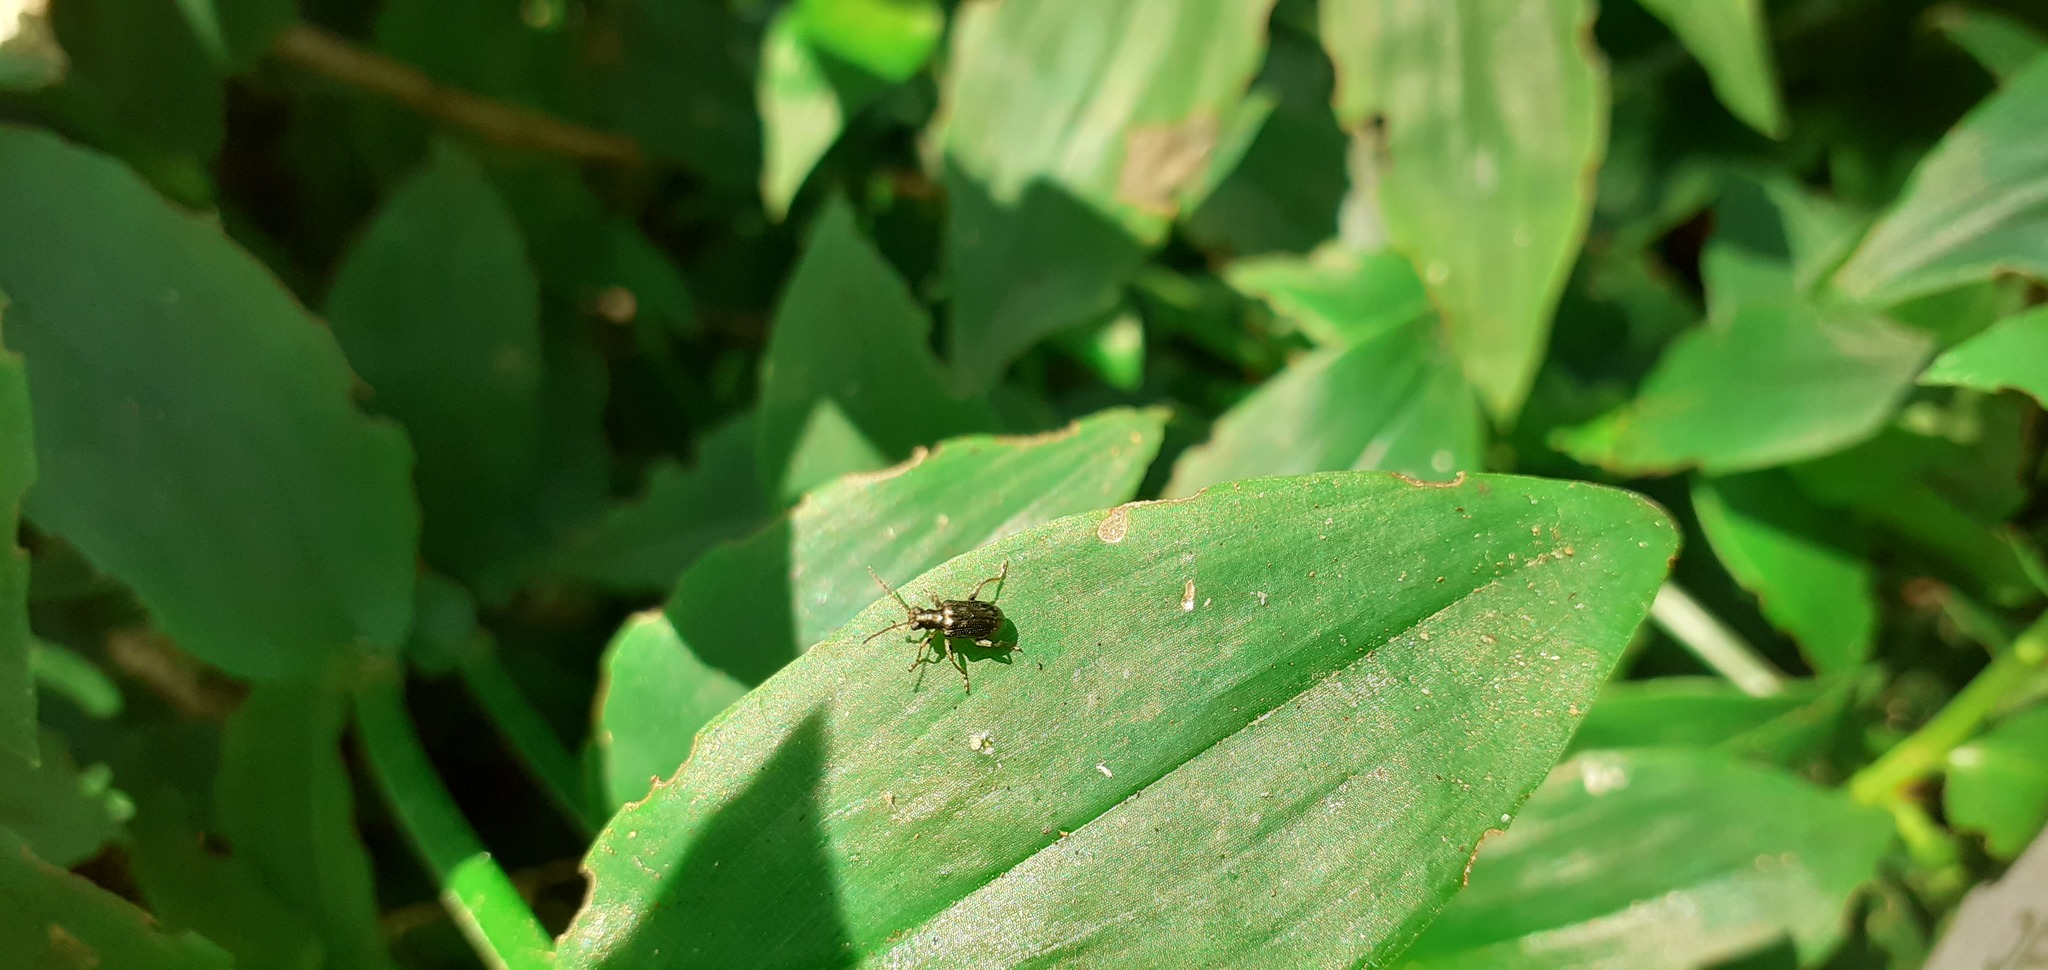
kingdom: Animalia
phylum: Arthropoda
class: Insecta
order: Coleoptera
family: Chrysomelidae
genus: Neolema
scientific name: Neolema ogloblini
